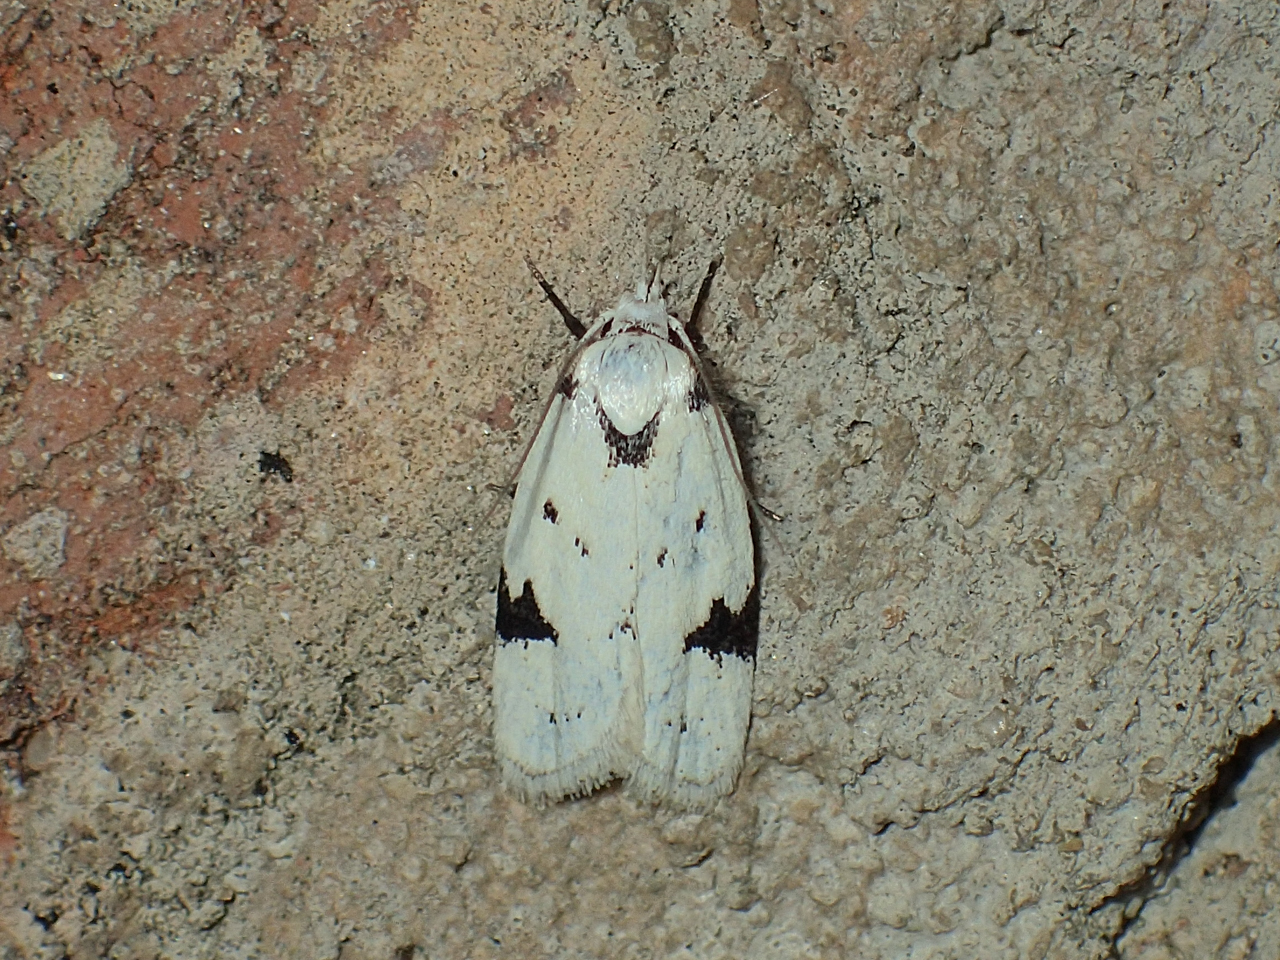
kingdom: Animalia
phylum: Arthropoda
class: Insecta
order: Lepidoptera
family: Oecophoridae
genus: Inga
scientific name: Inga sparsiciliella
